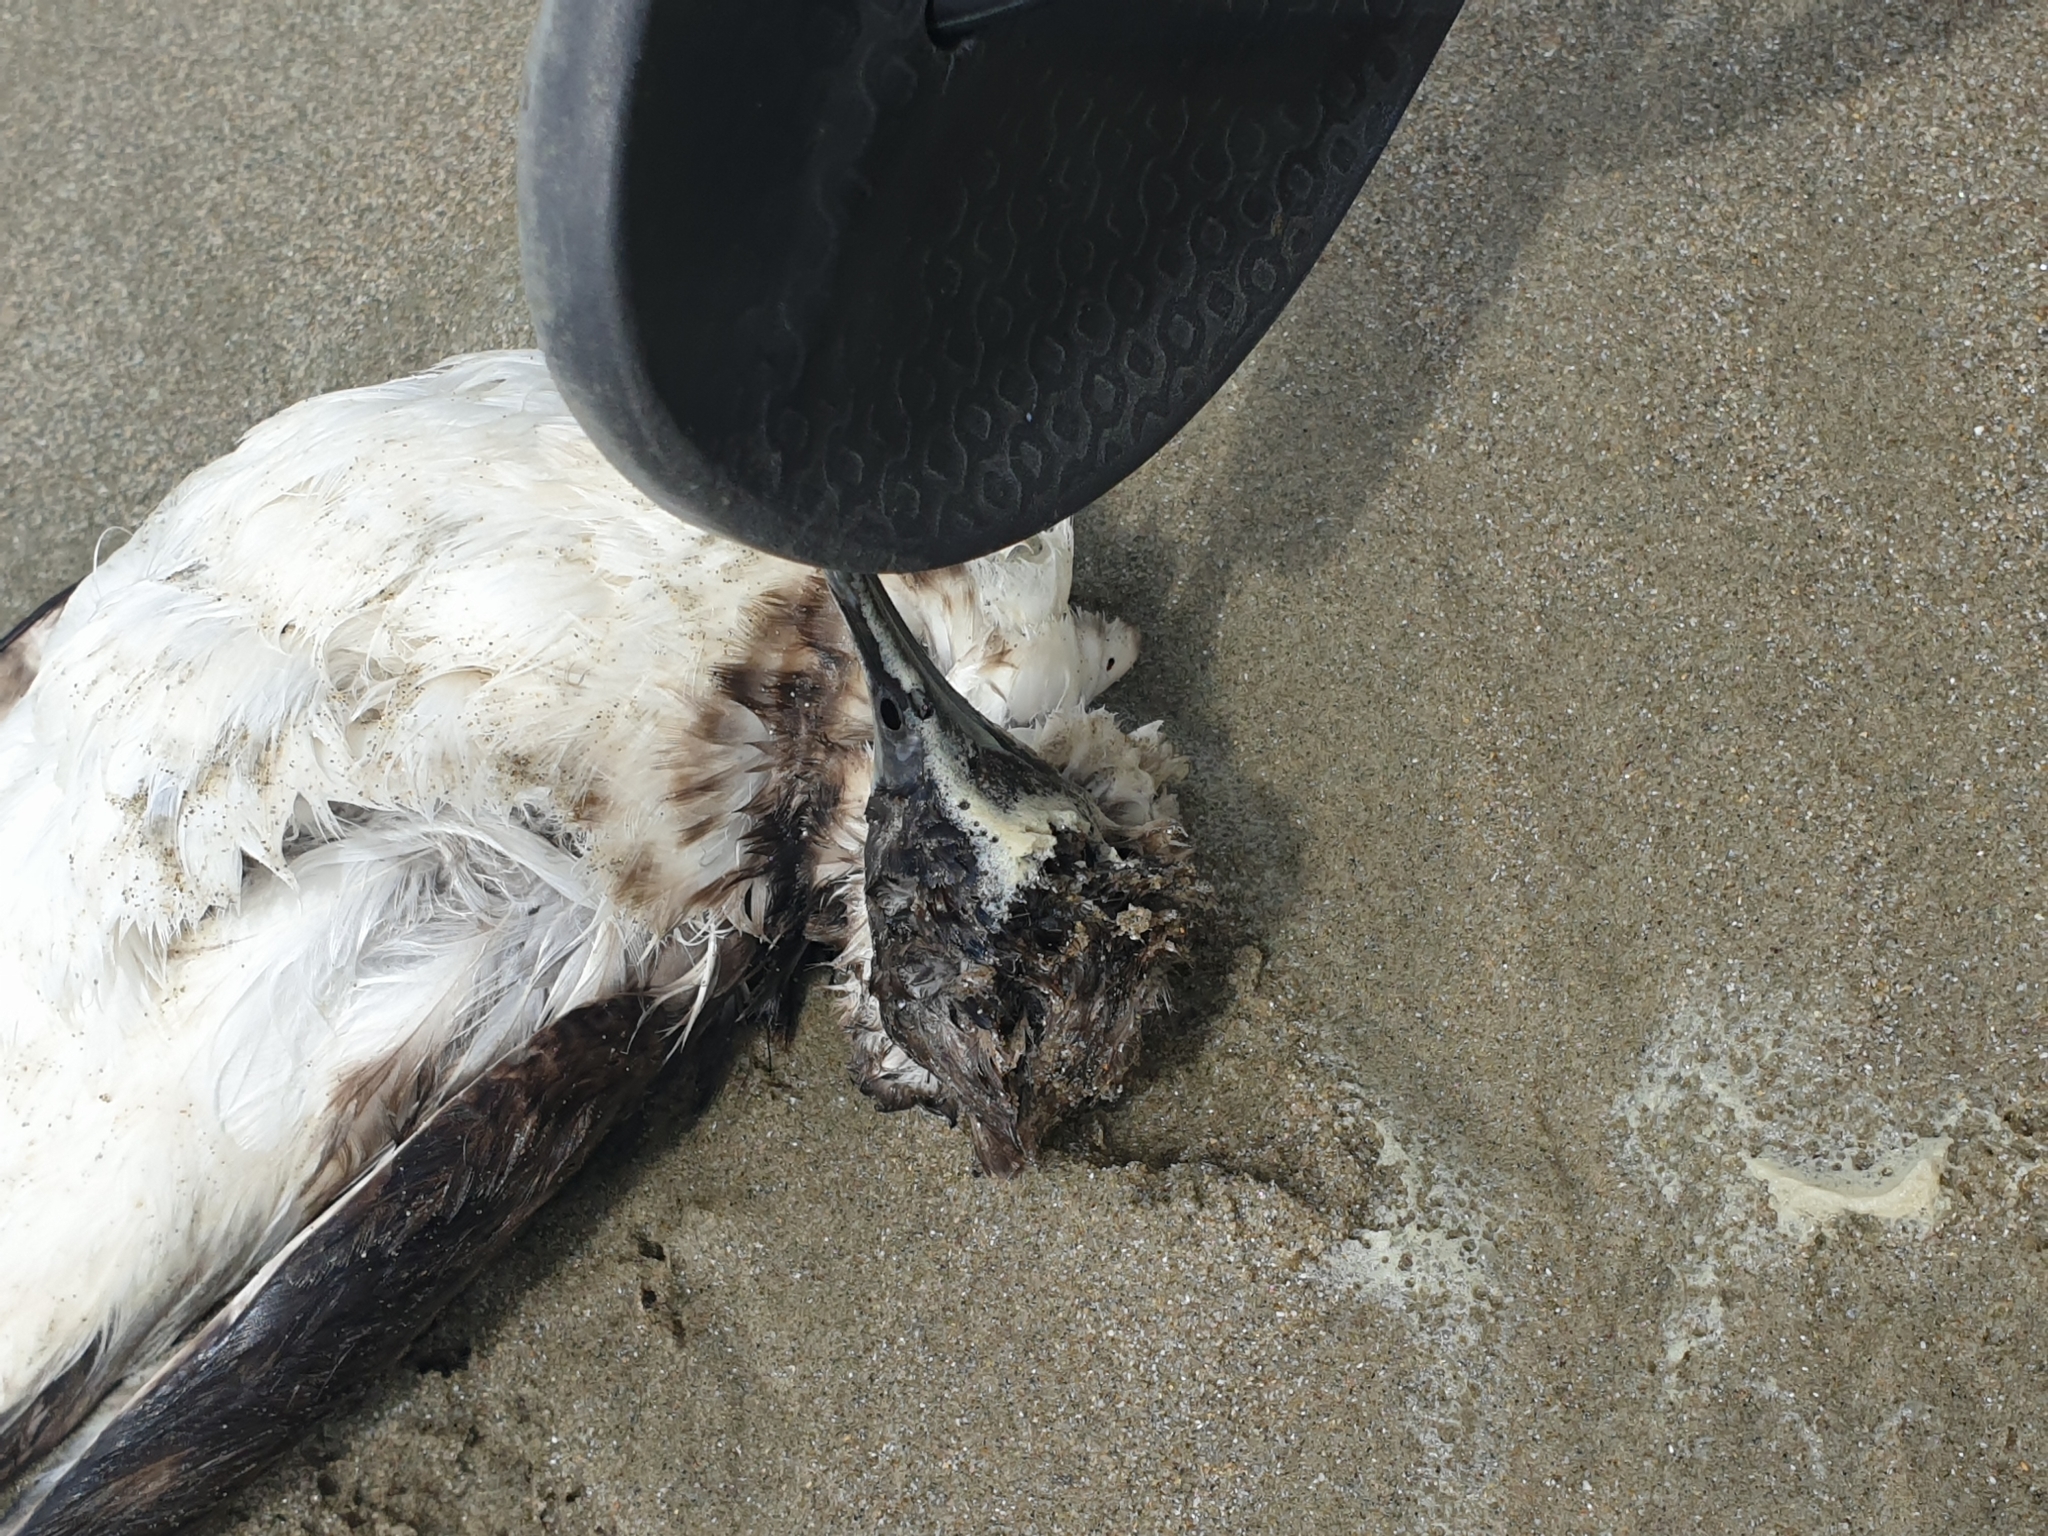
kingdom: Animalia
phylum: Chordata
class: Aves
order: Procellariiformes
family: Procellariidae
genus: Puffinus
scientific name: Puffinus gavia
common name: Fluttering shearwater
